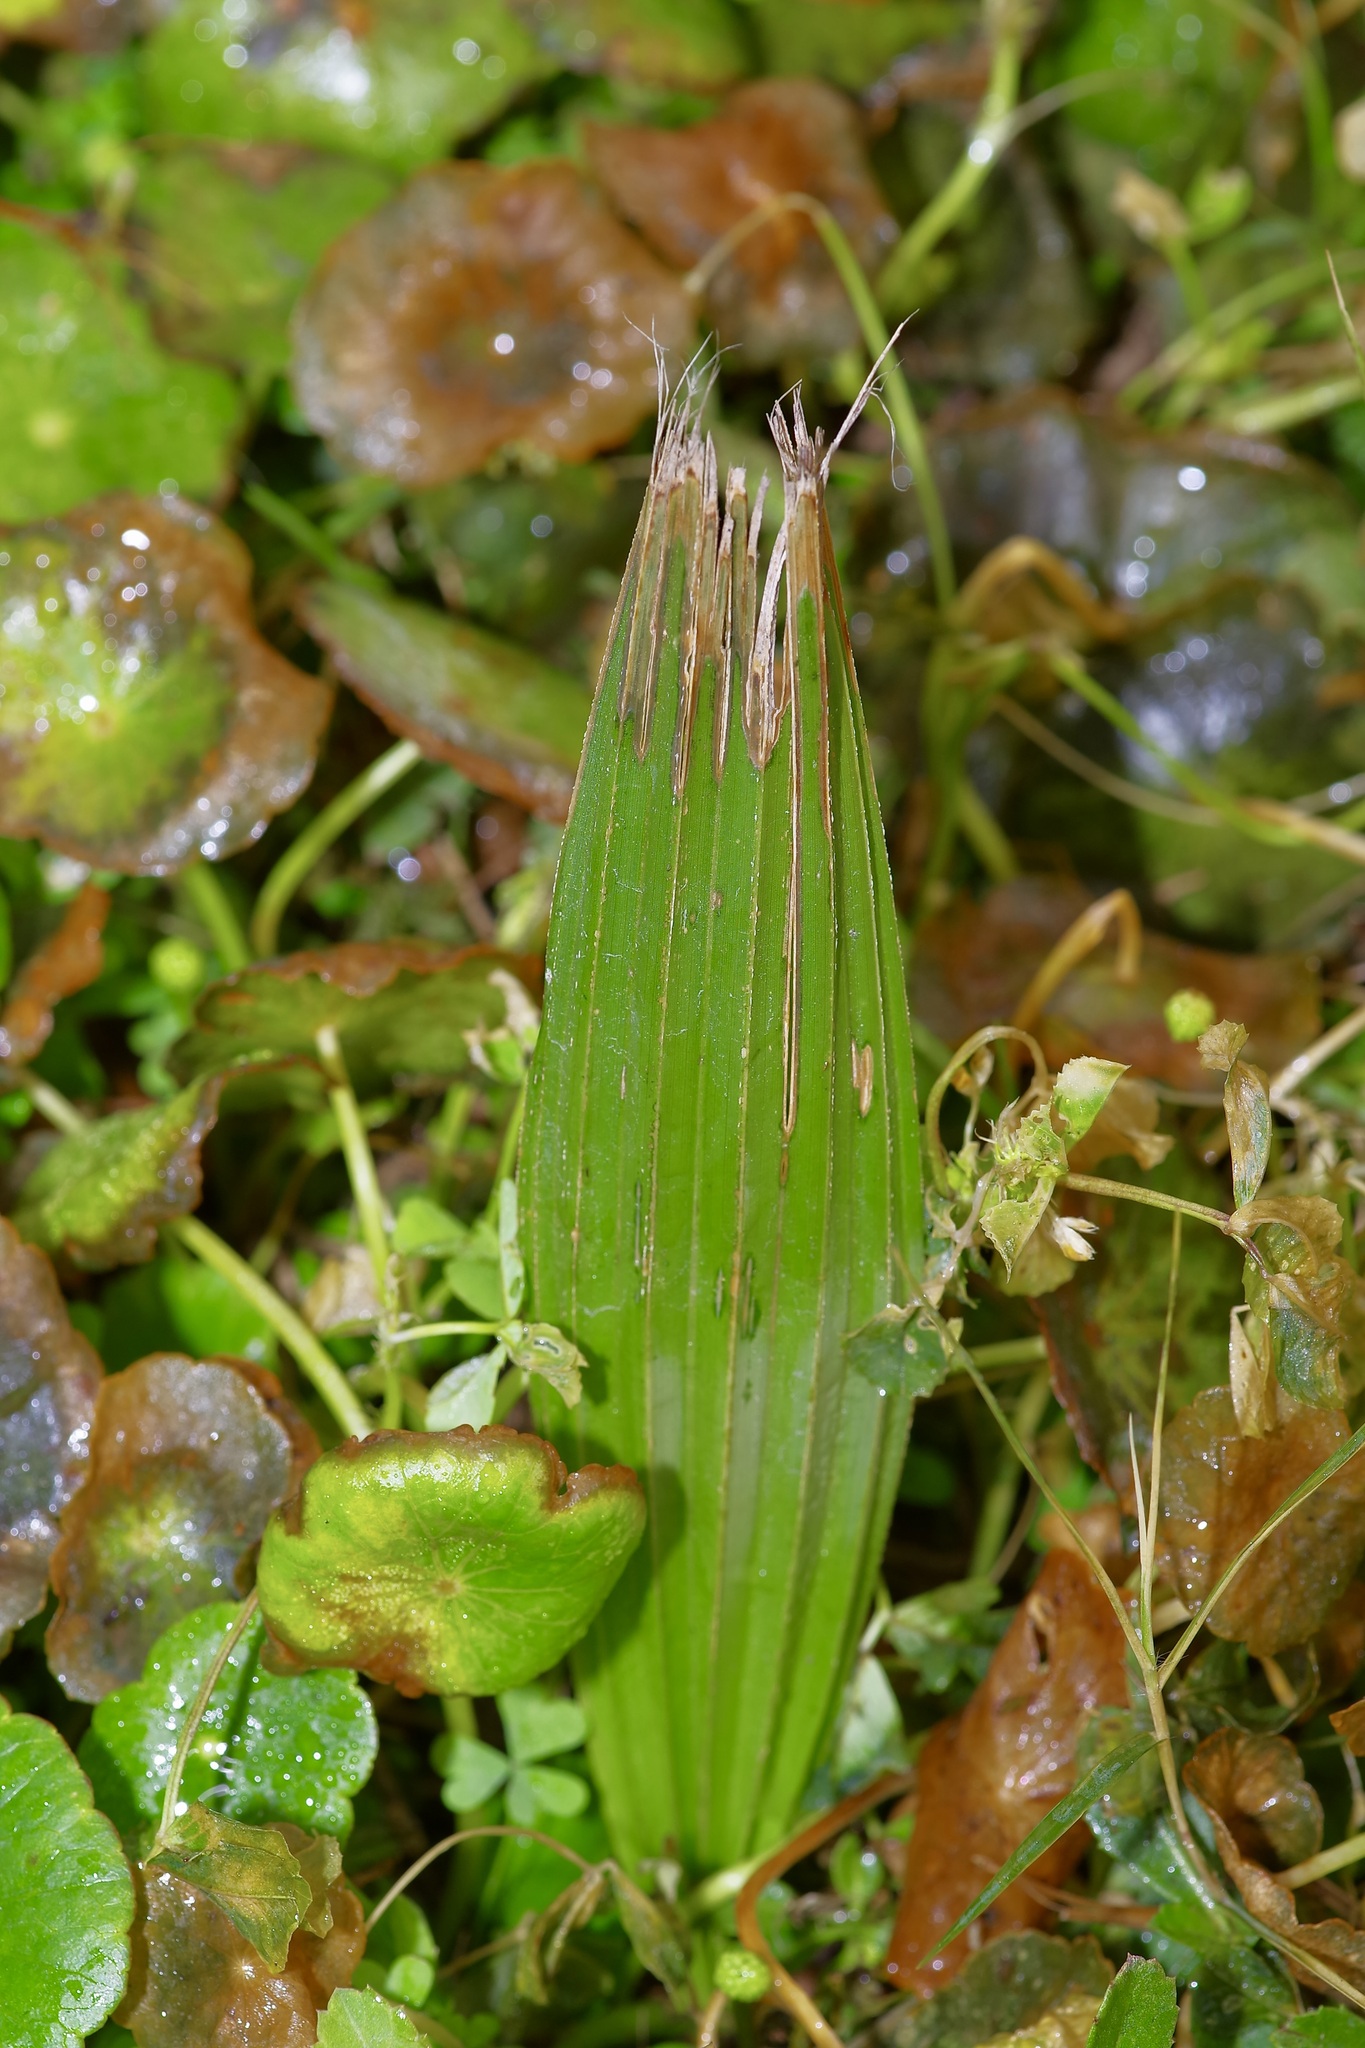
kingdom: Plantae
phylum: Tracheophyta
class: Liliopsida
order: Arecales
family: Arecaceae
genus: Sabal
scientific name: Sabal minor
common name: Dwarf palmetto
